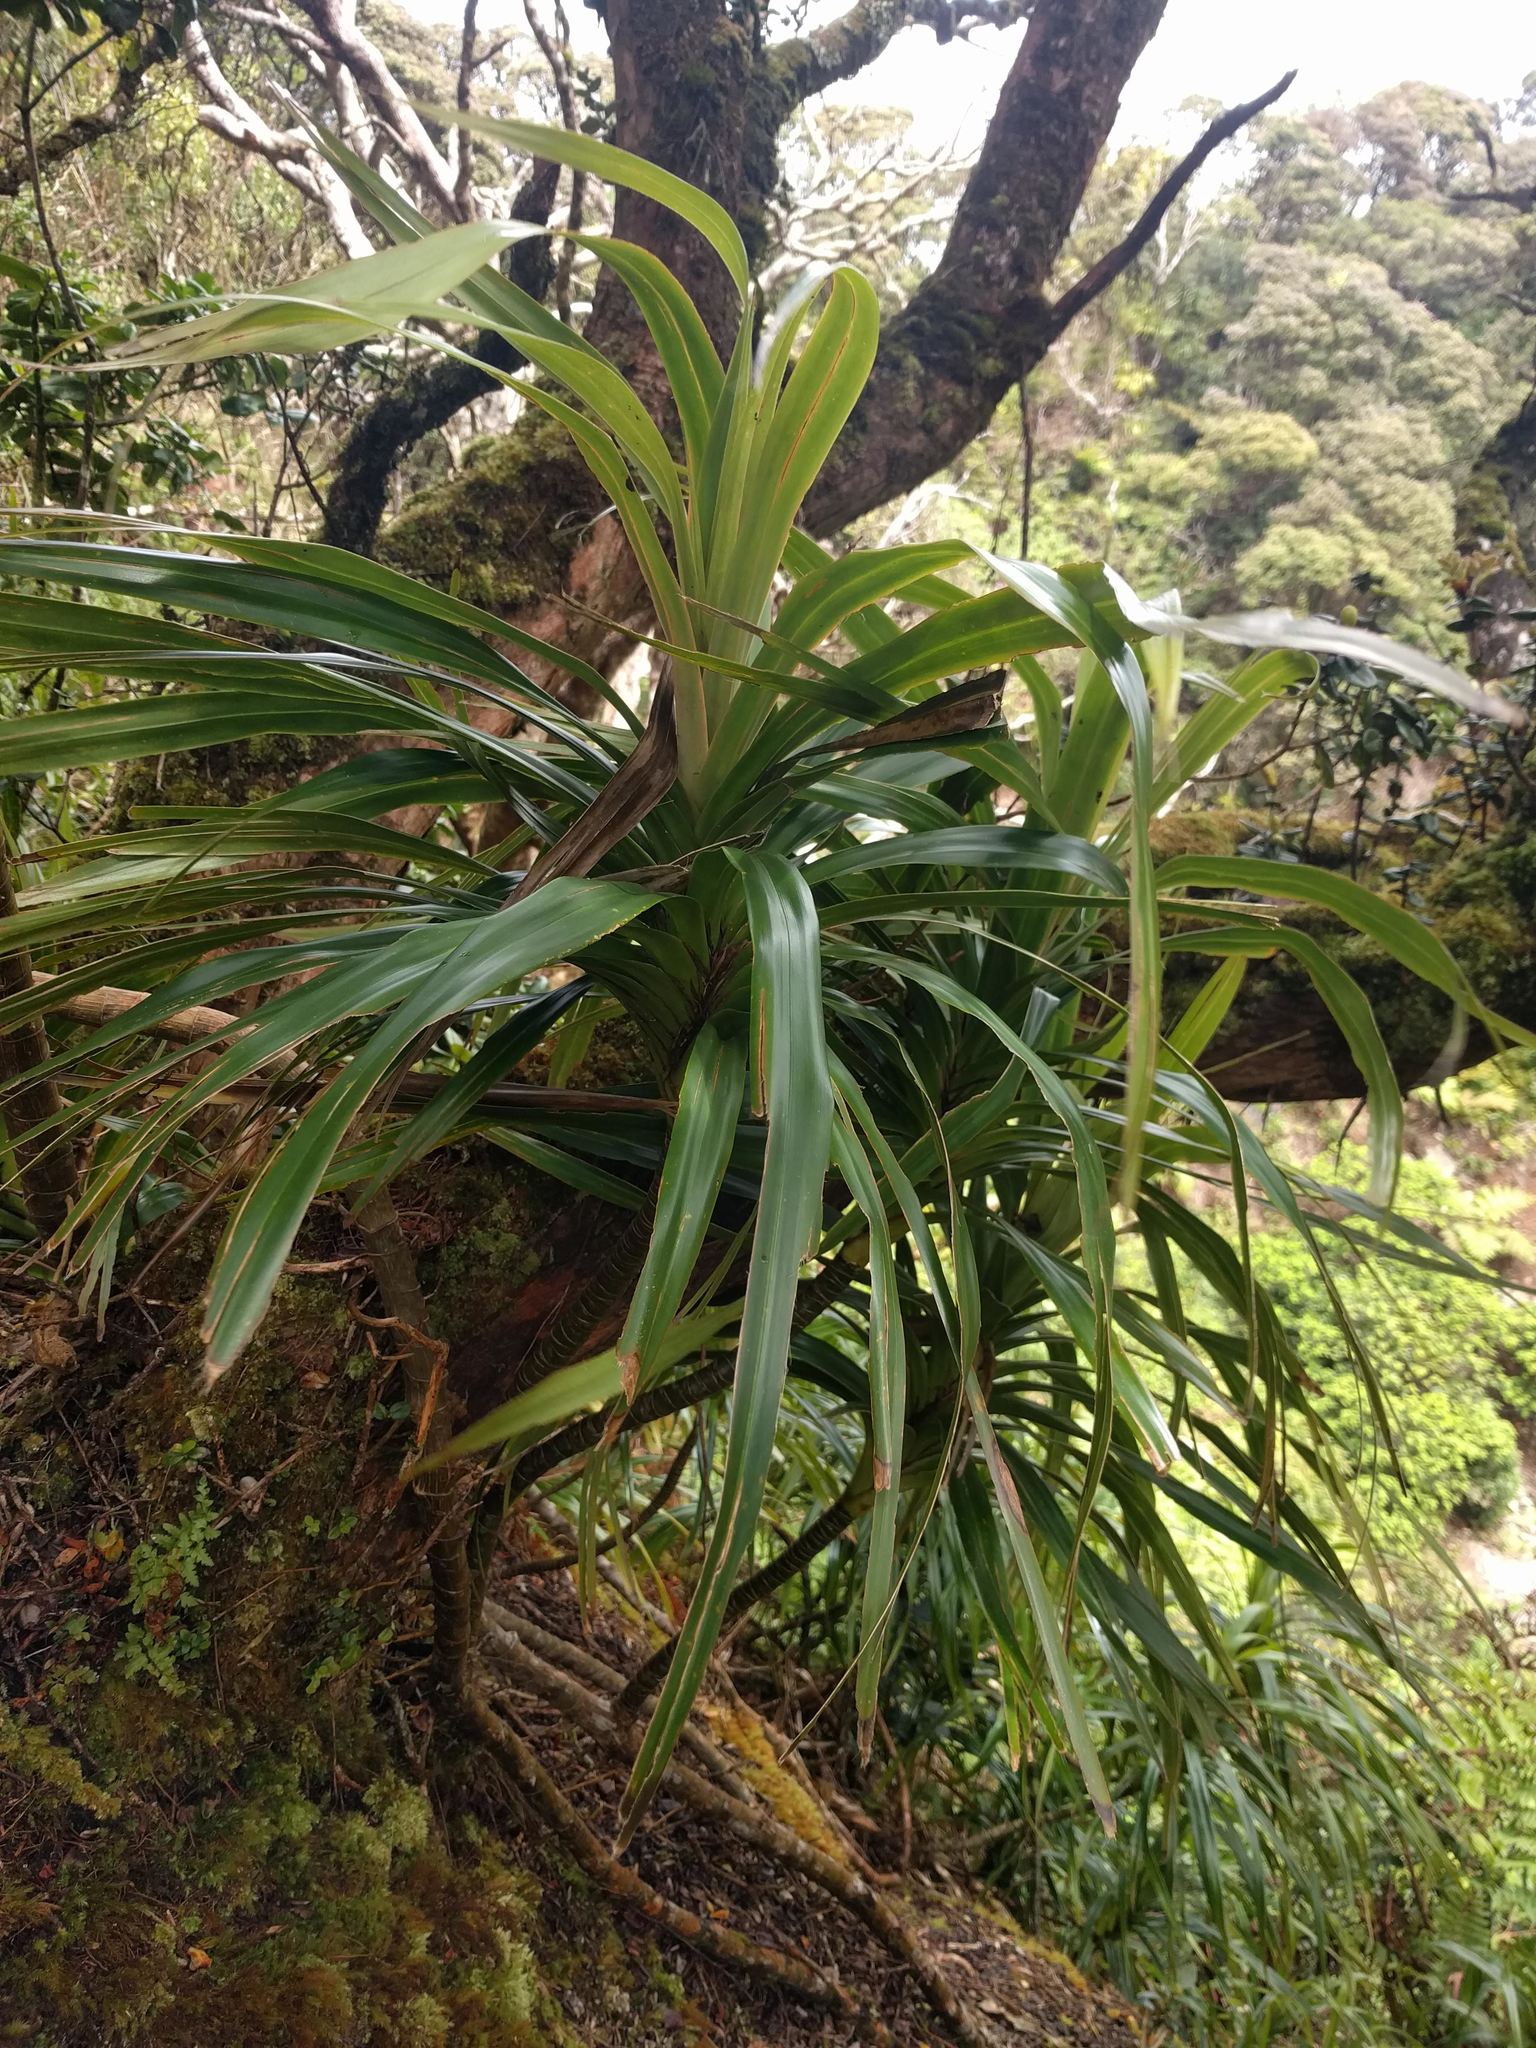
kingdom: Plantae
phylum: Tracheophyta
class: Liliopsida
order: Pandanales
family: Pandanaceae
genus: Freycinetia
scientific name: Freycinetia arborea
